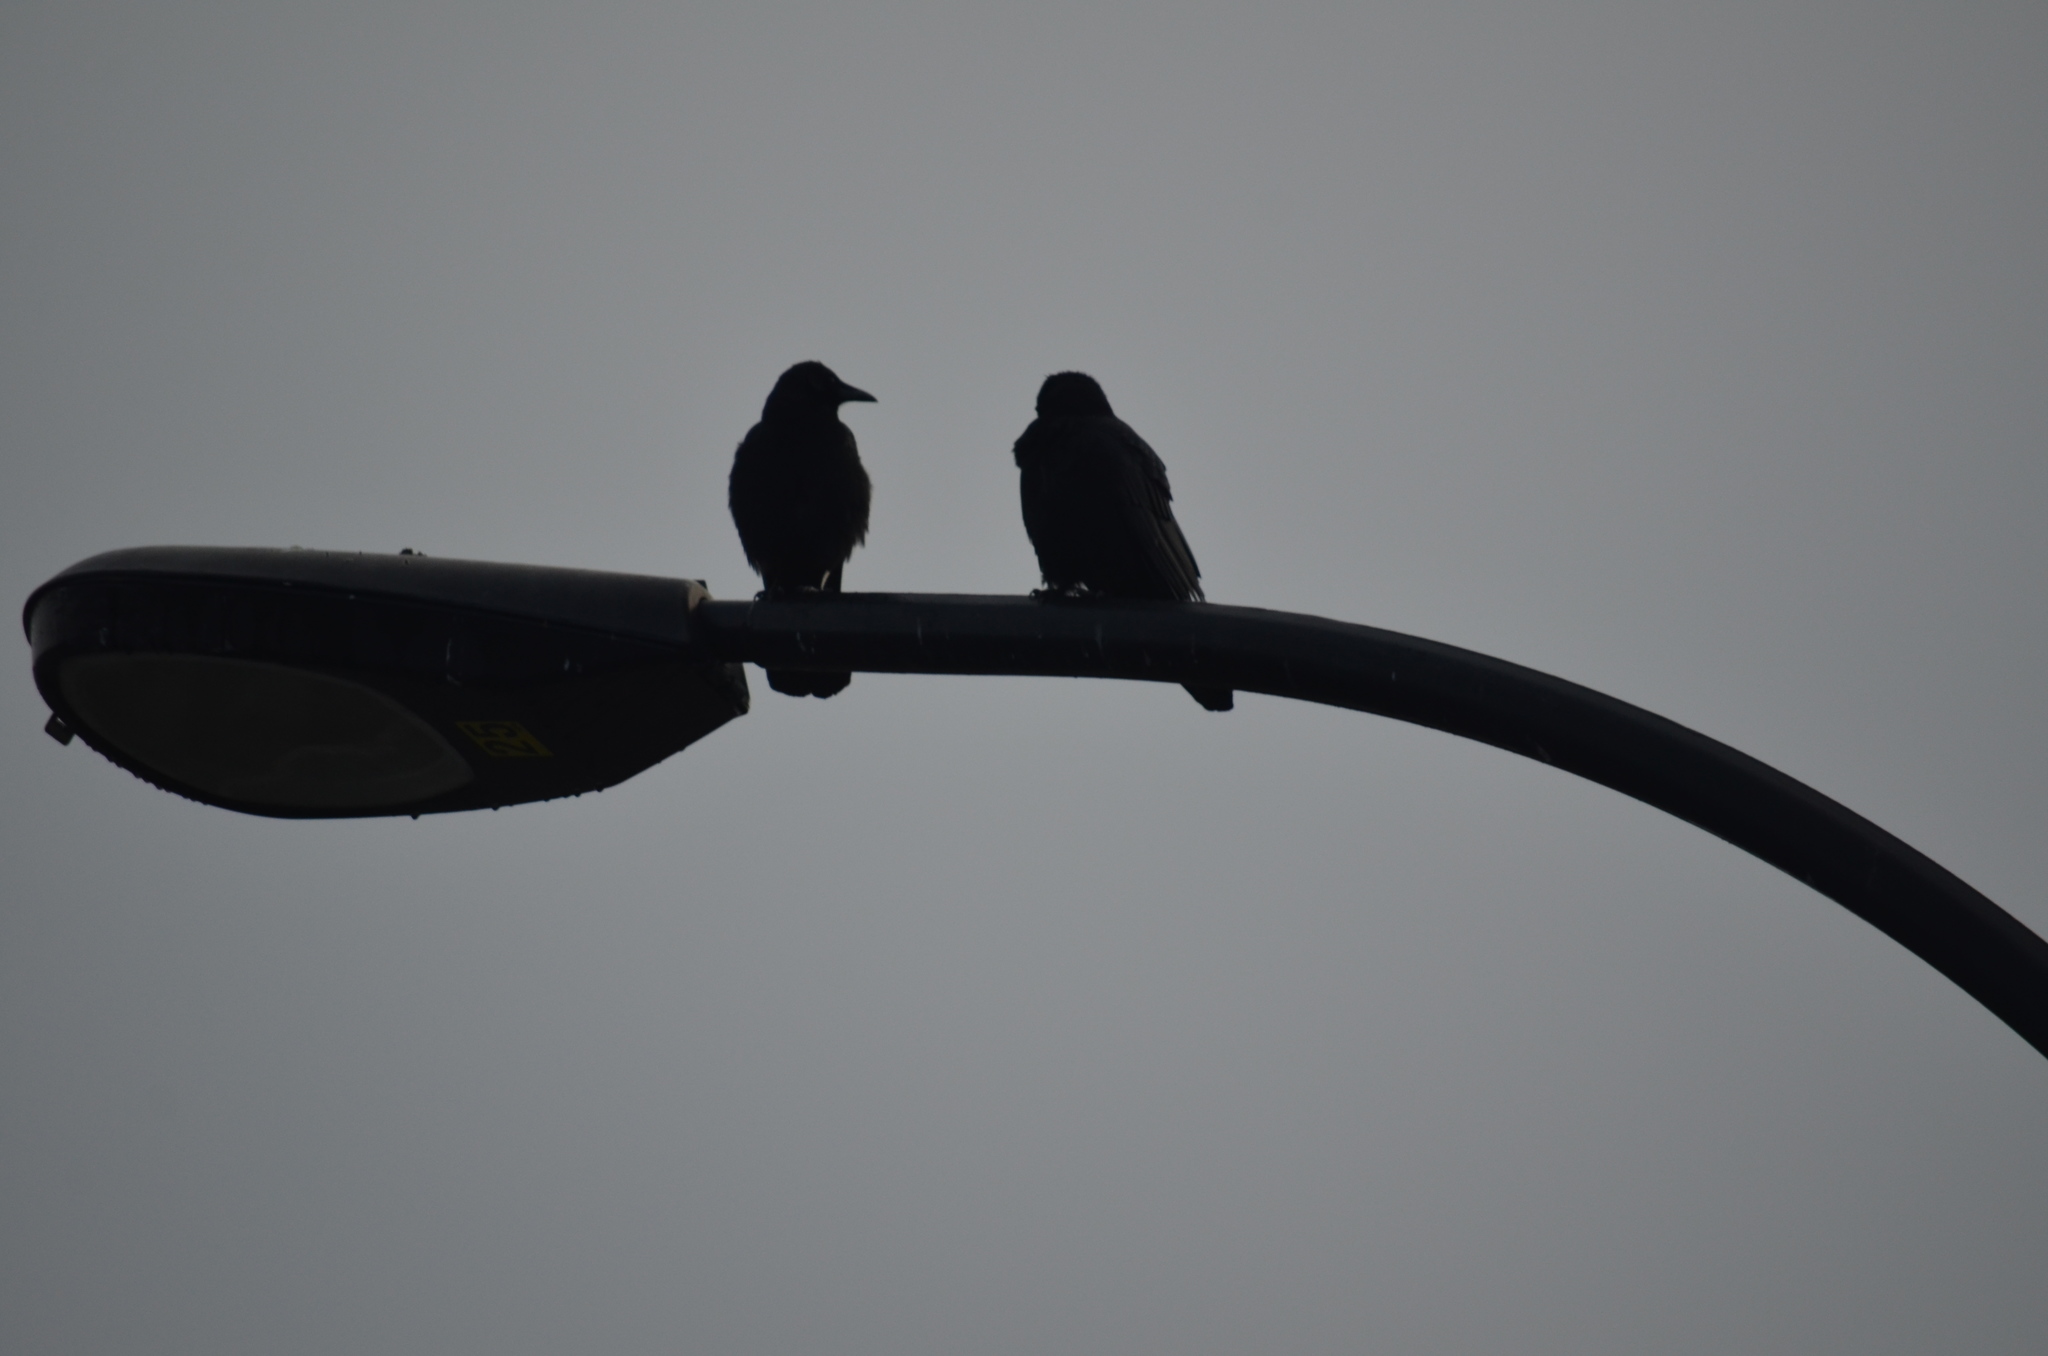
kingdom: Animalia
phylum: Chordata
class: Aves
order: Passeriformes
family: Corvidae
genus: Corvus
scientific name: Corvus brachyrhynchos
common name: American crow
